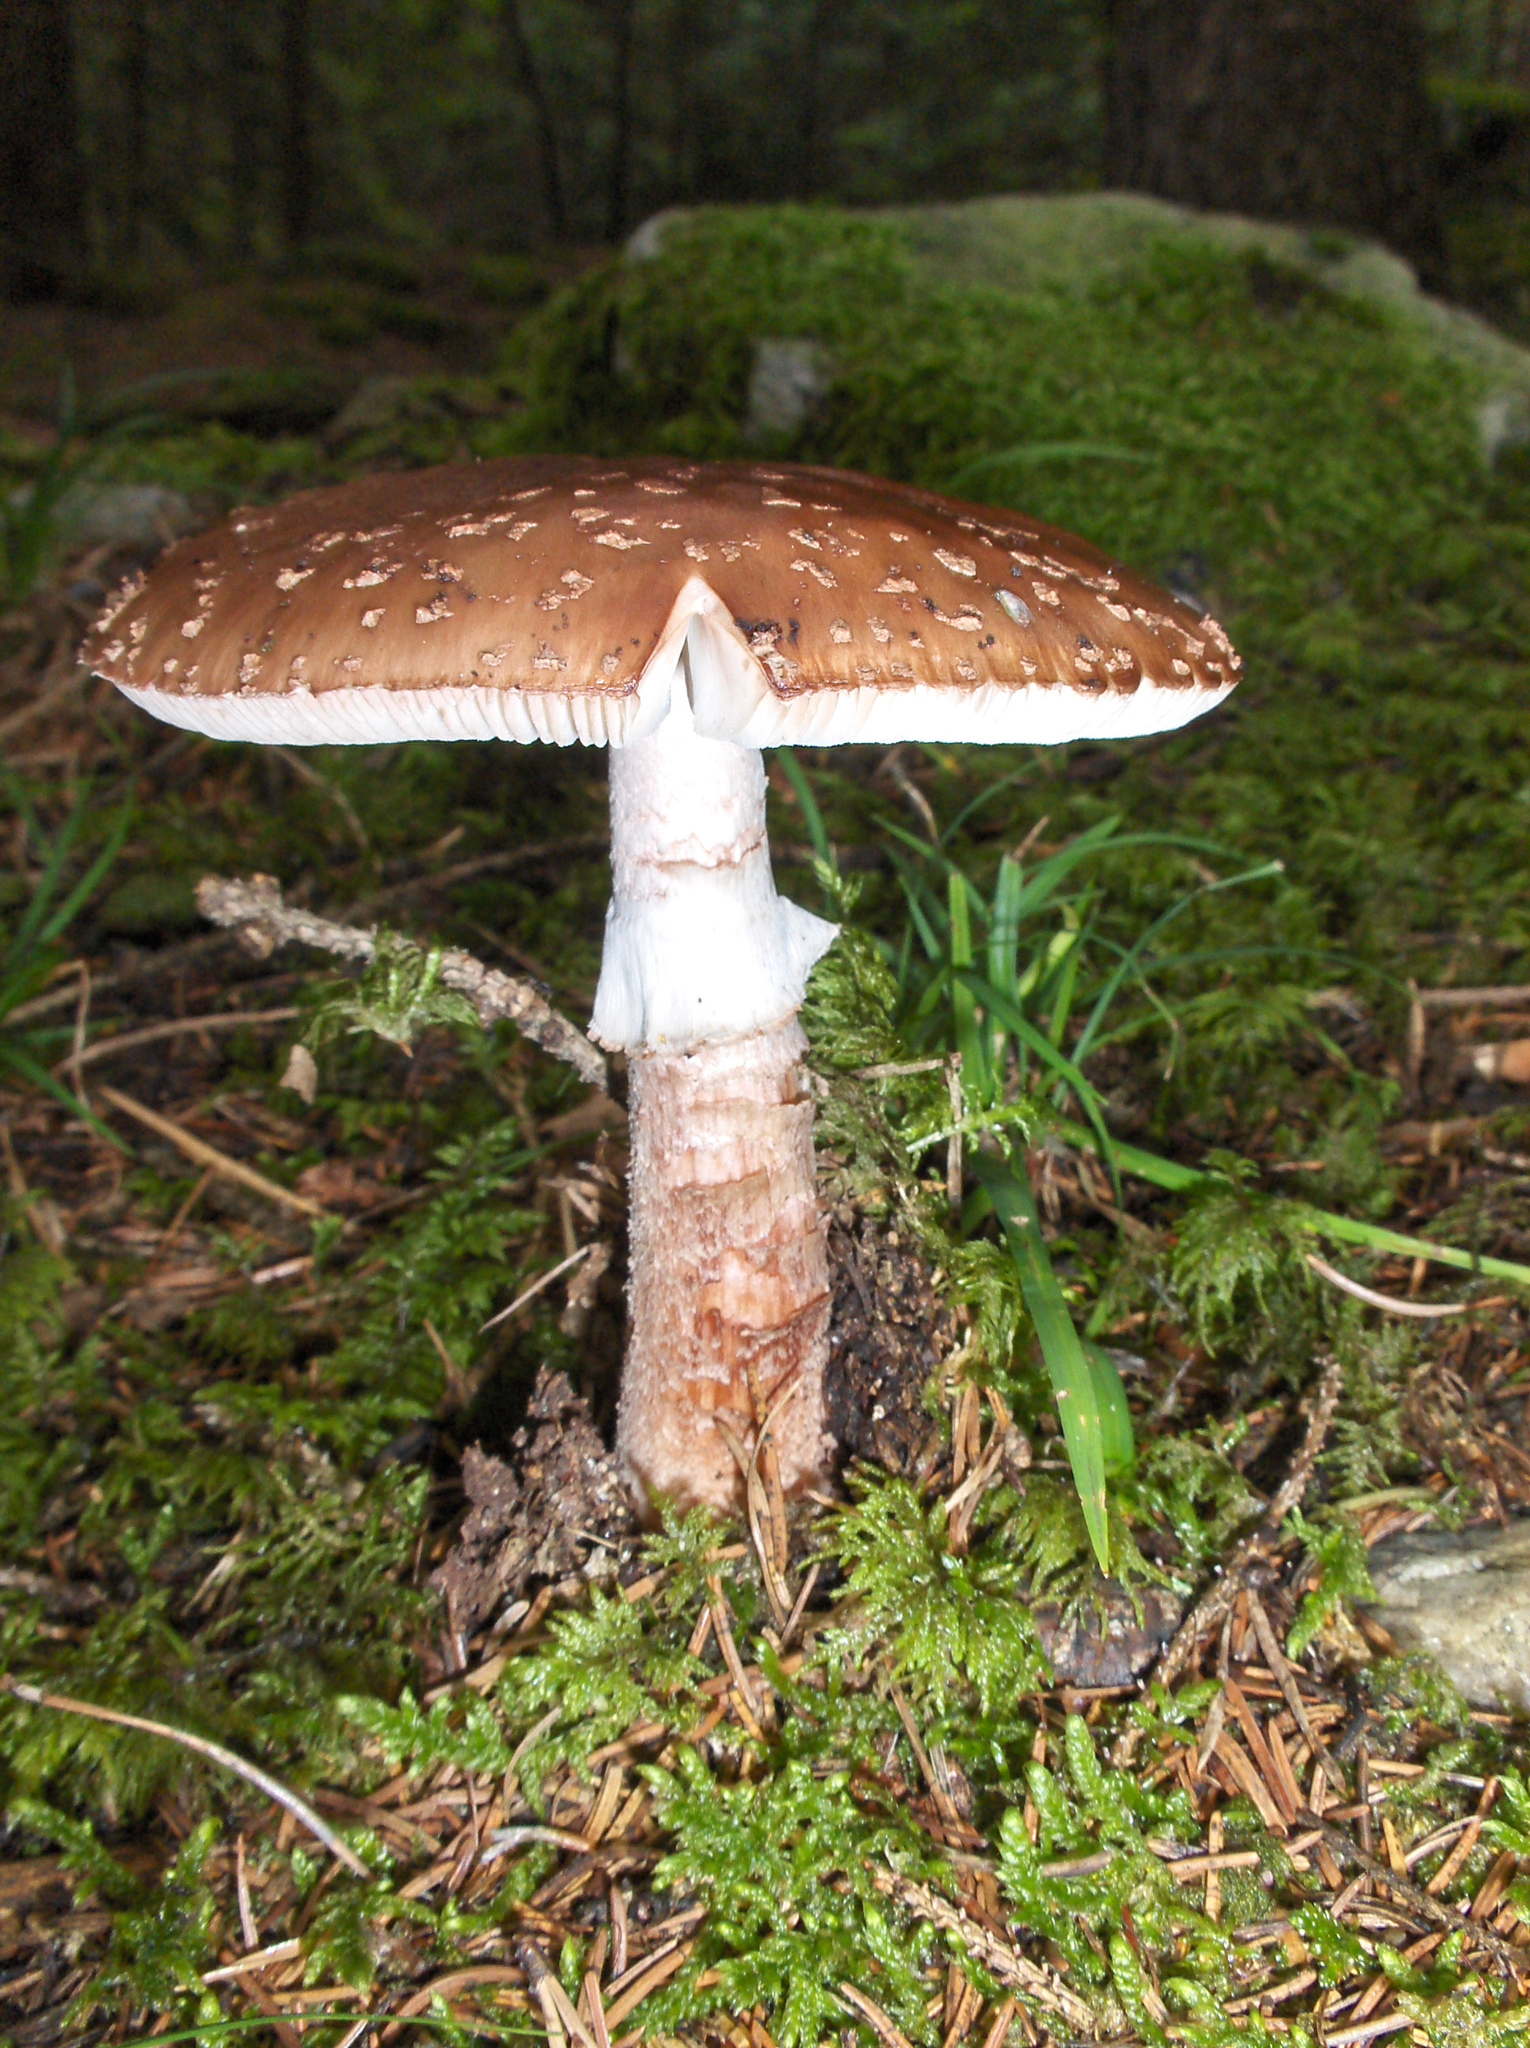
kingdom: Fungi
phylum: Basidiomycota
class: Agaricomycetes
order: Agaricales
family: Amanitaceae
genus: Amanita
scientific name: Amanita rubescens
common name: Blusher
